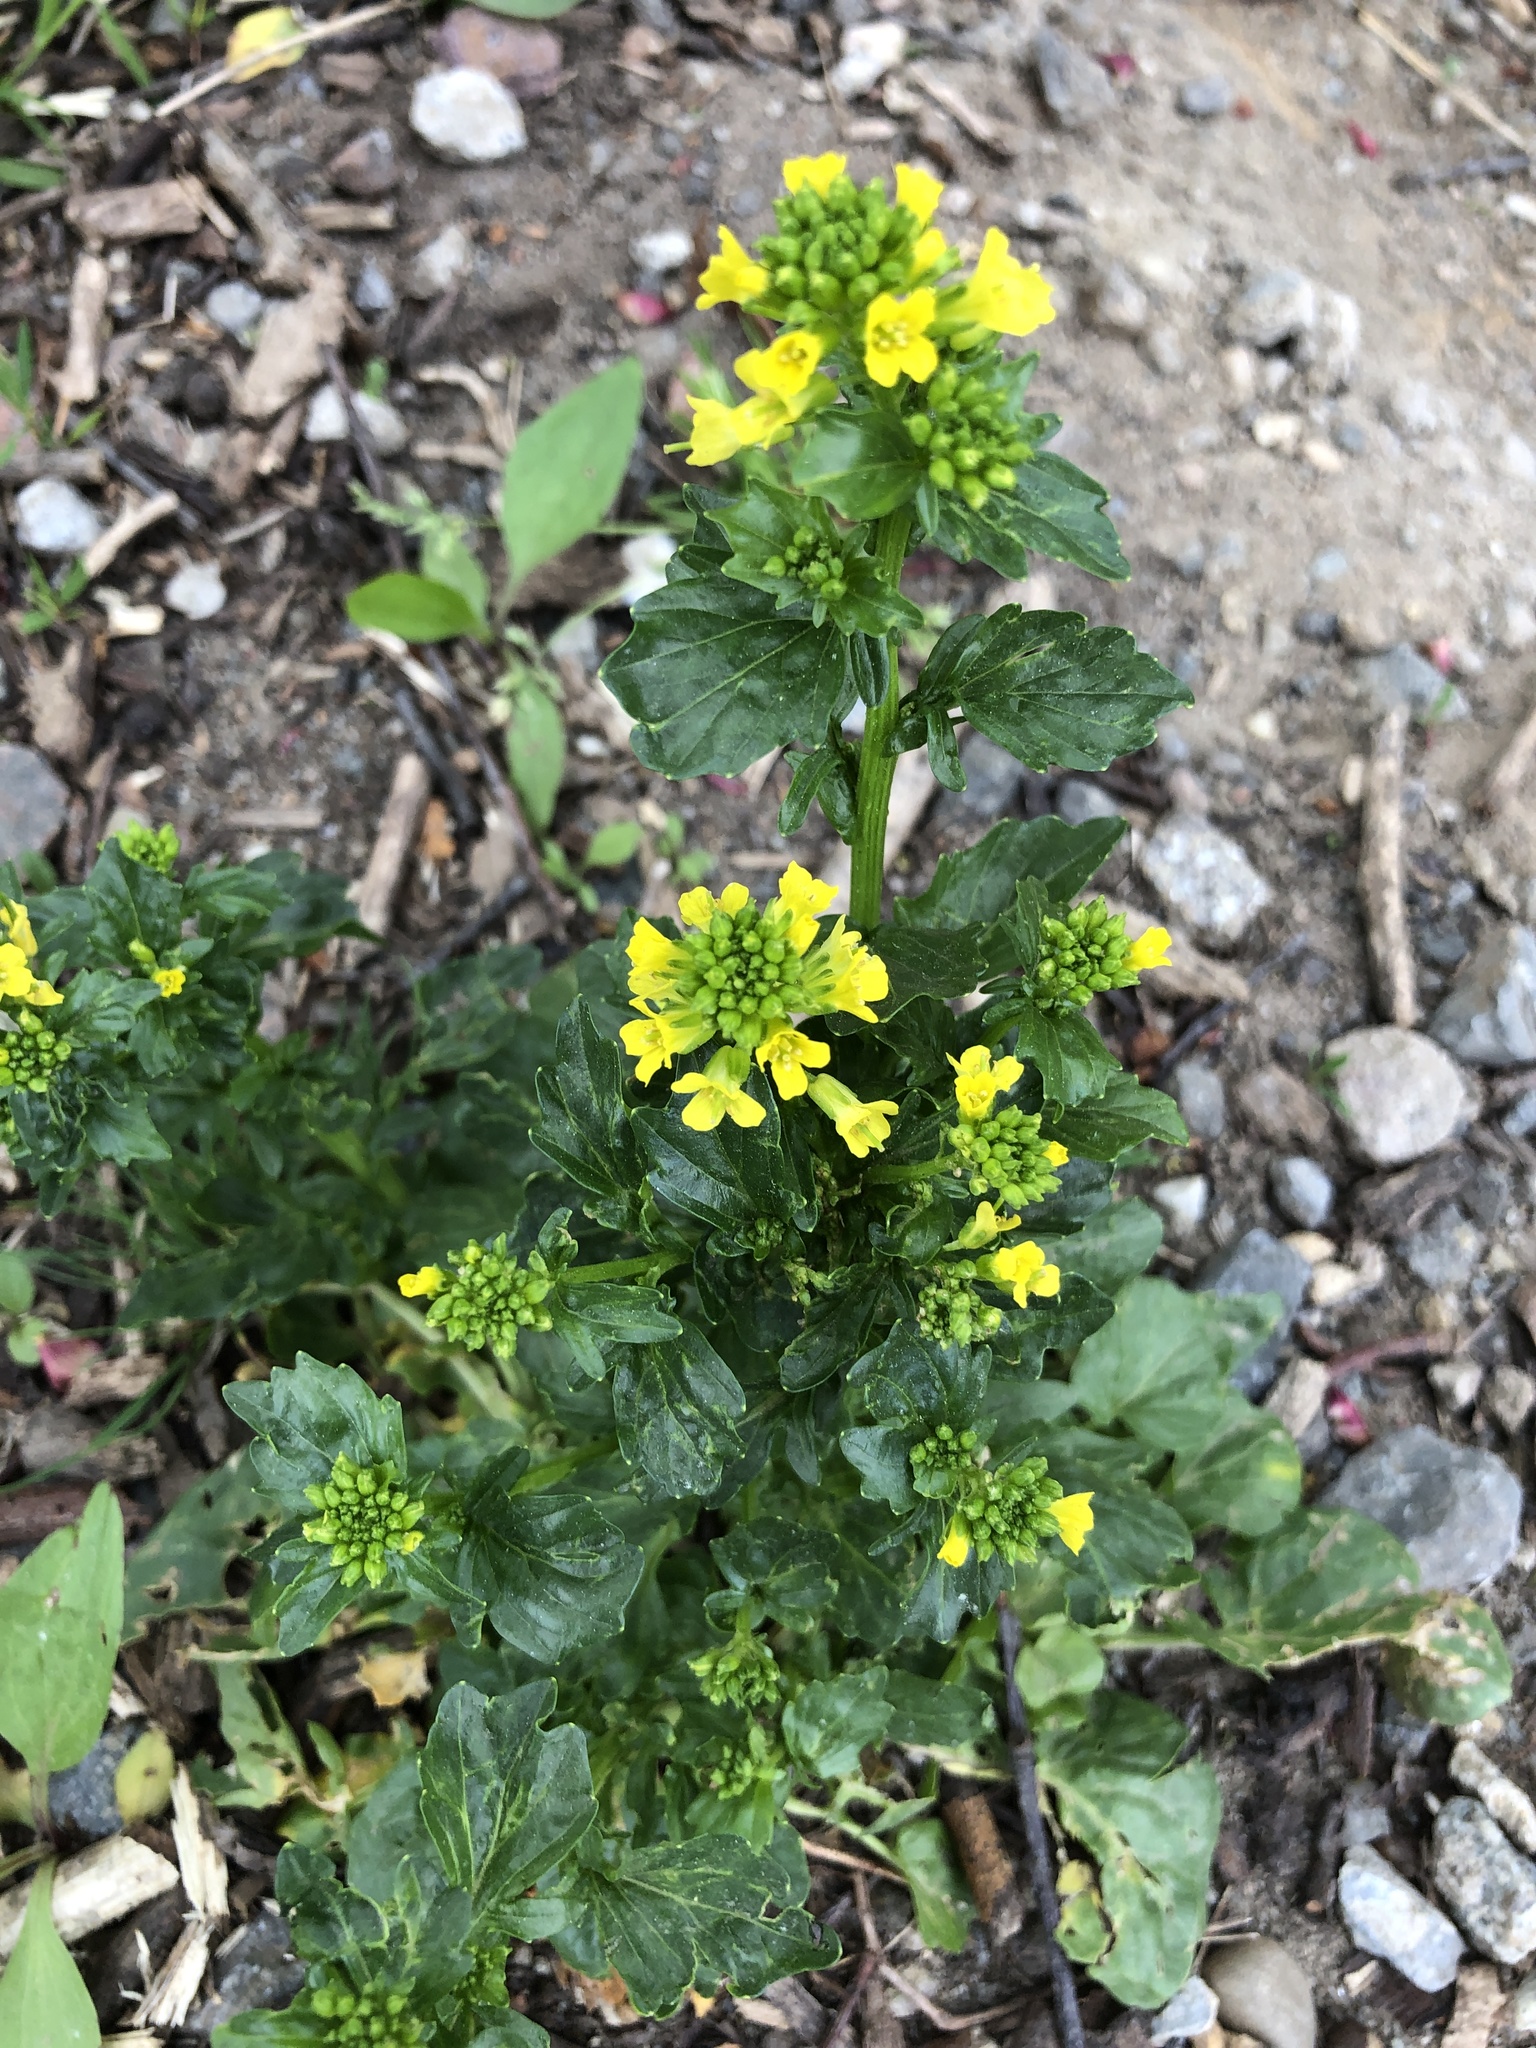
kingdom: Plantae
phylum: Tracheophyta
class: Magnoliopsida
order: Brassicales
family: Brassicaceae
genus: Barbarea
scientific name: Barbarea vulgaris
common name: Cressy-greens
